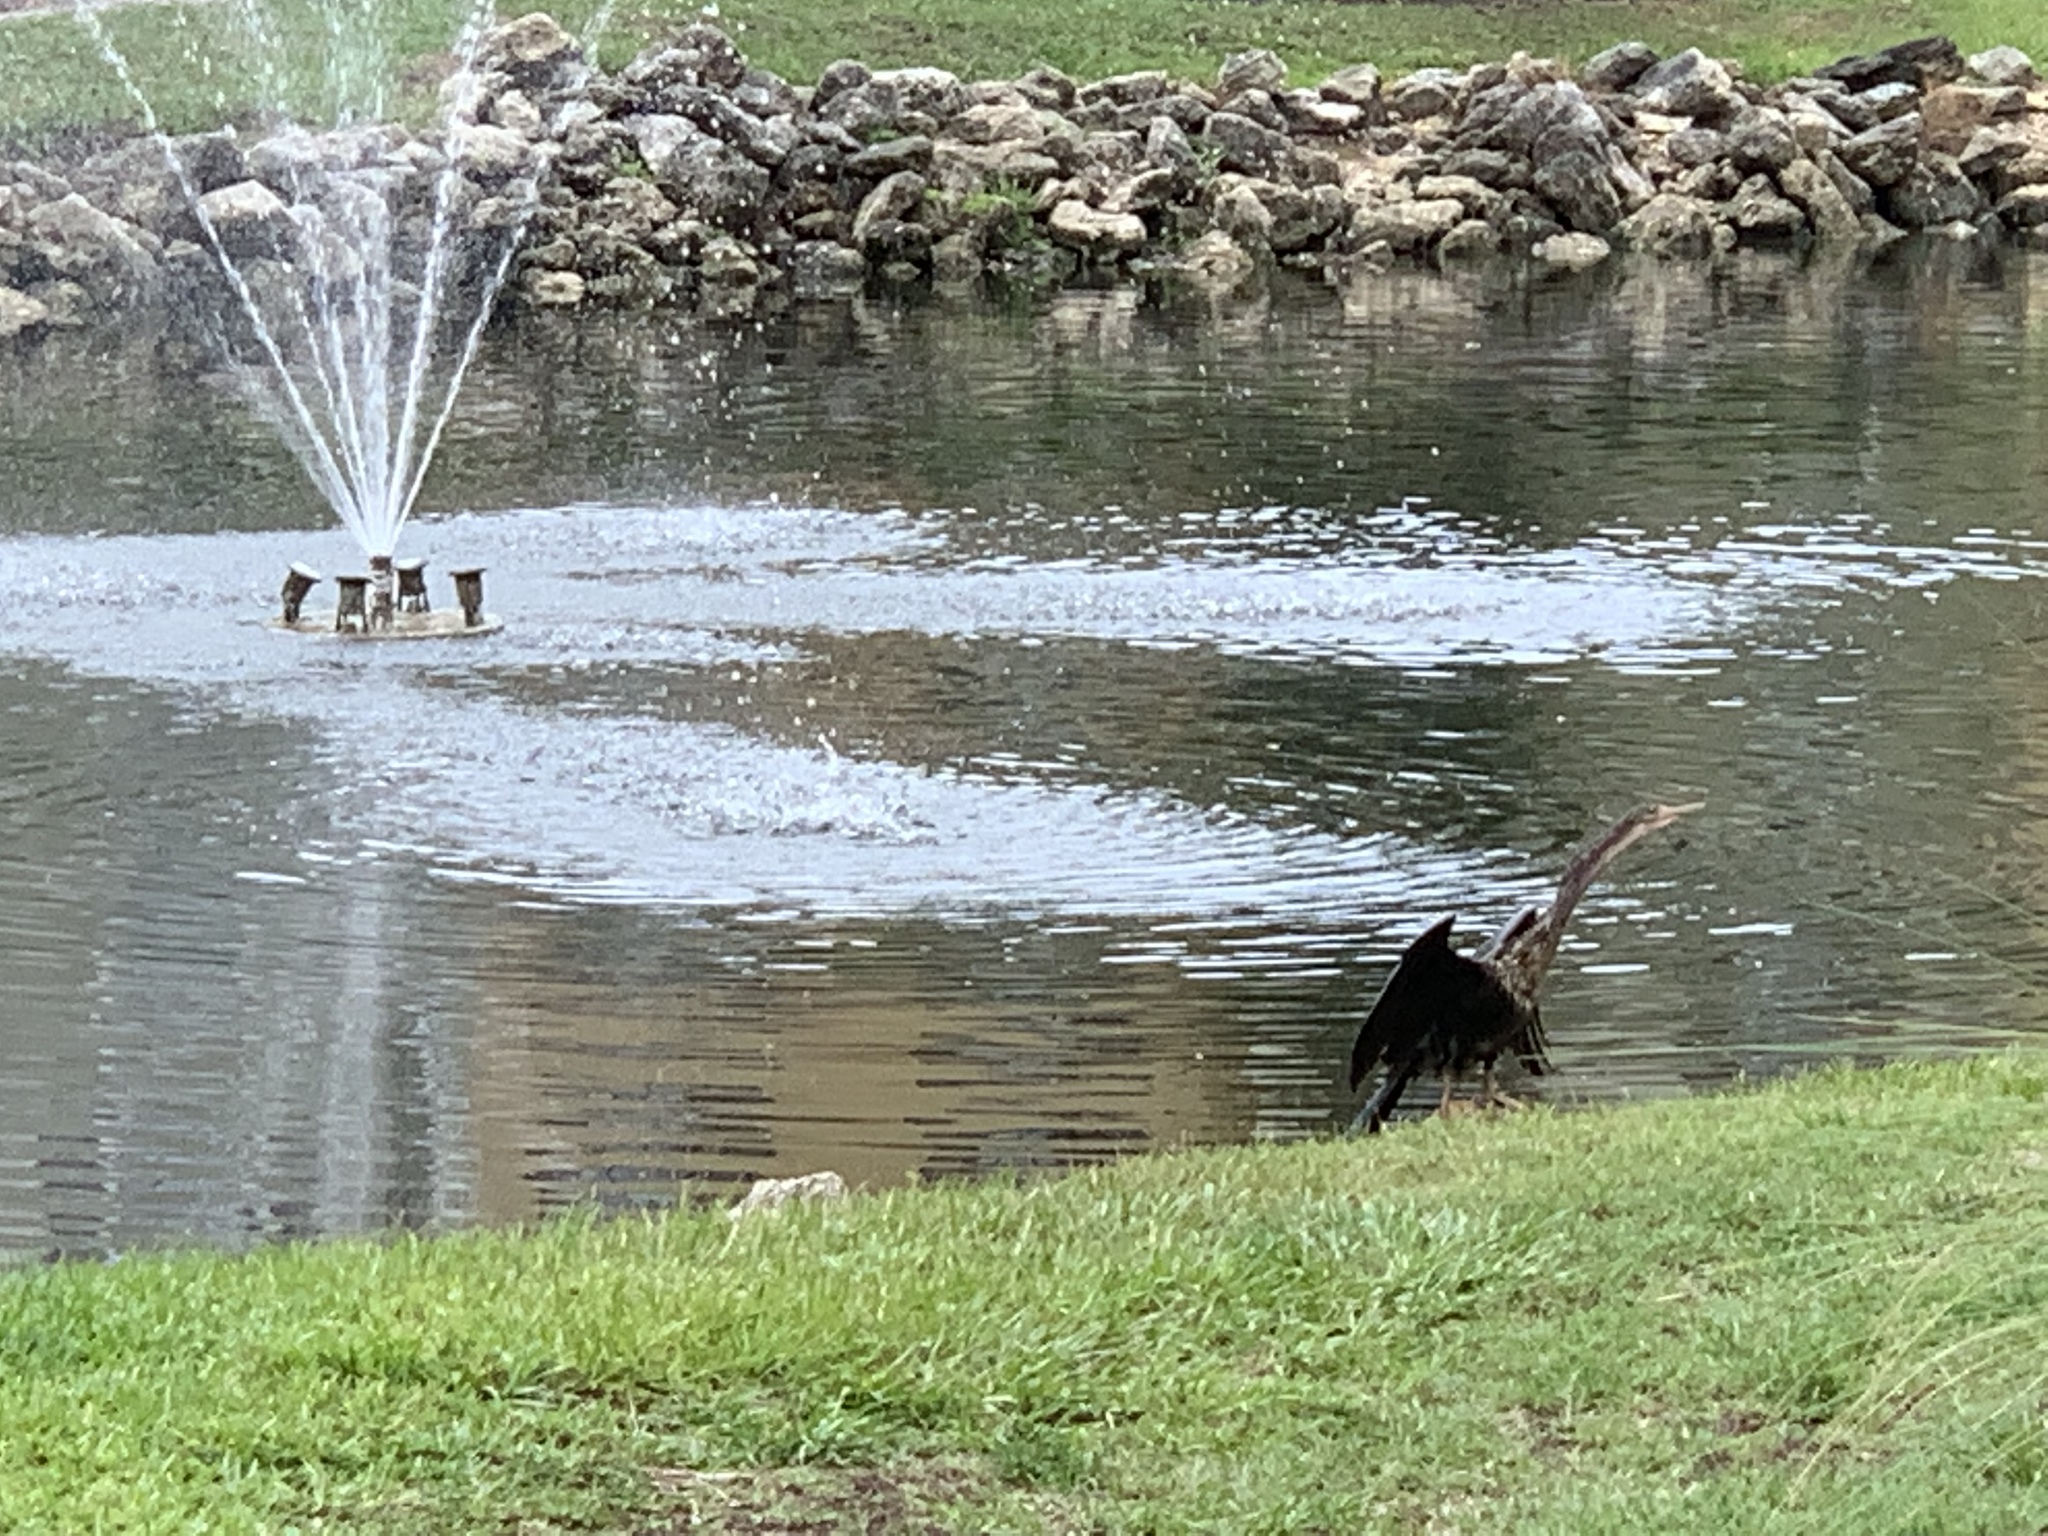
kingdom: Animalia
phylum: Chordata
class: Aves
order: Suliformes
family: Anhingidae
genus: Anhinga
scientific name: Anhinga anhinga
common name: Anhinga
